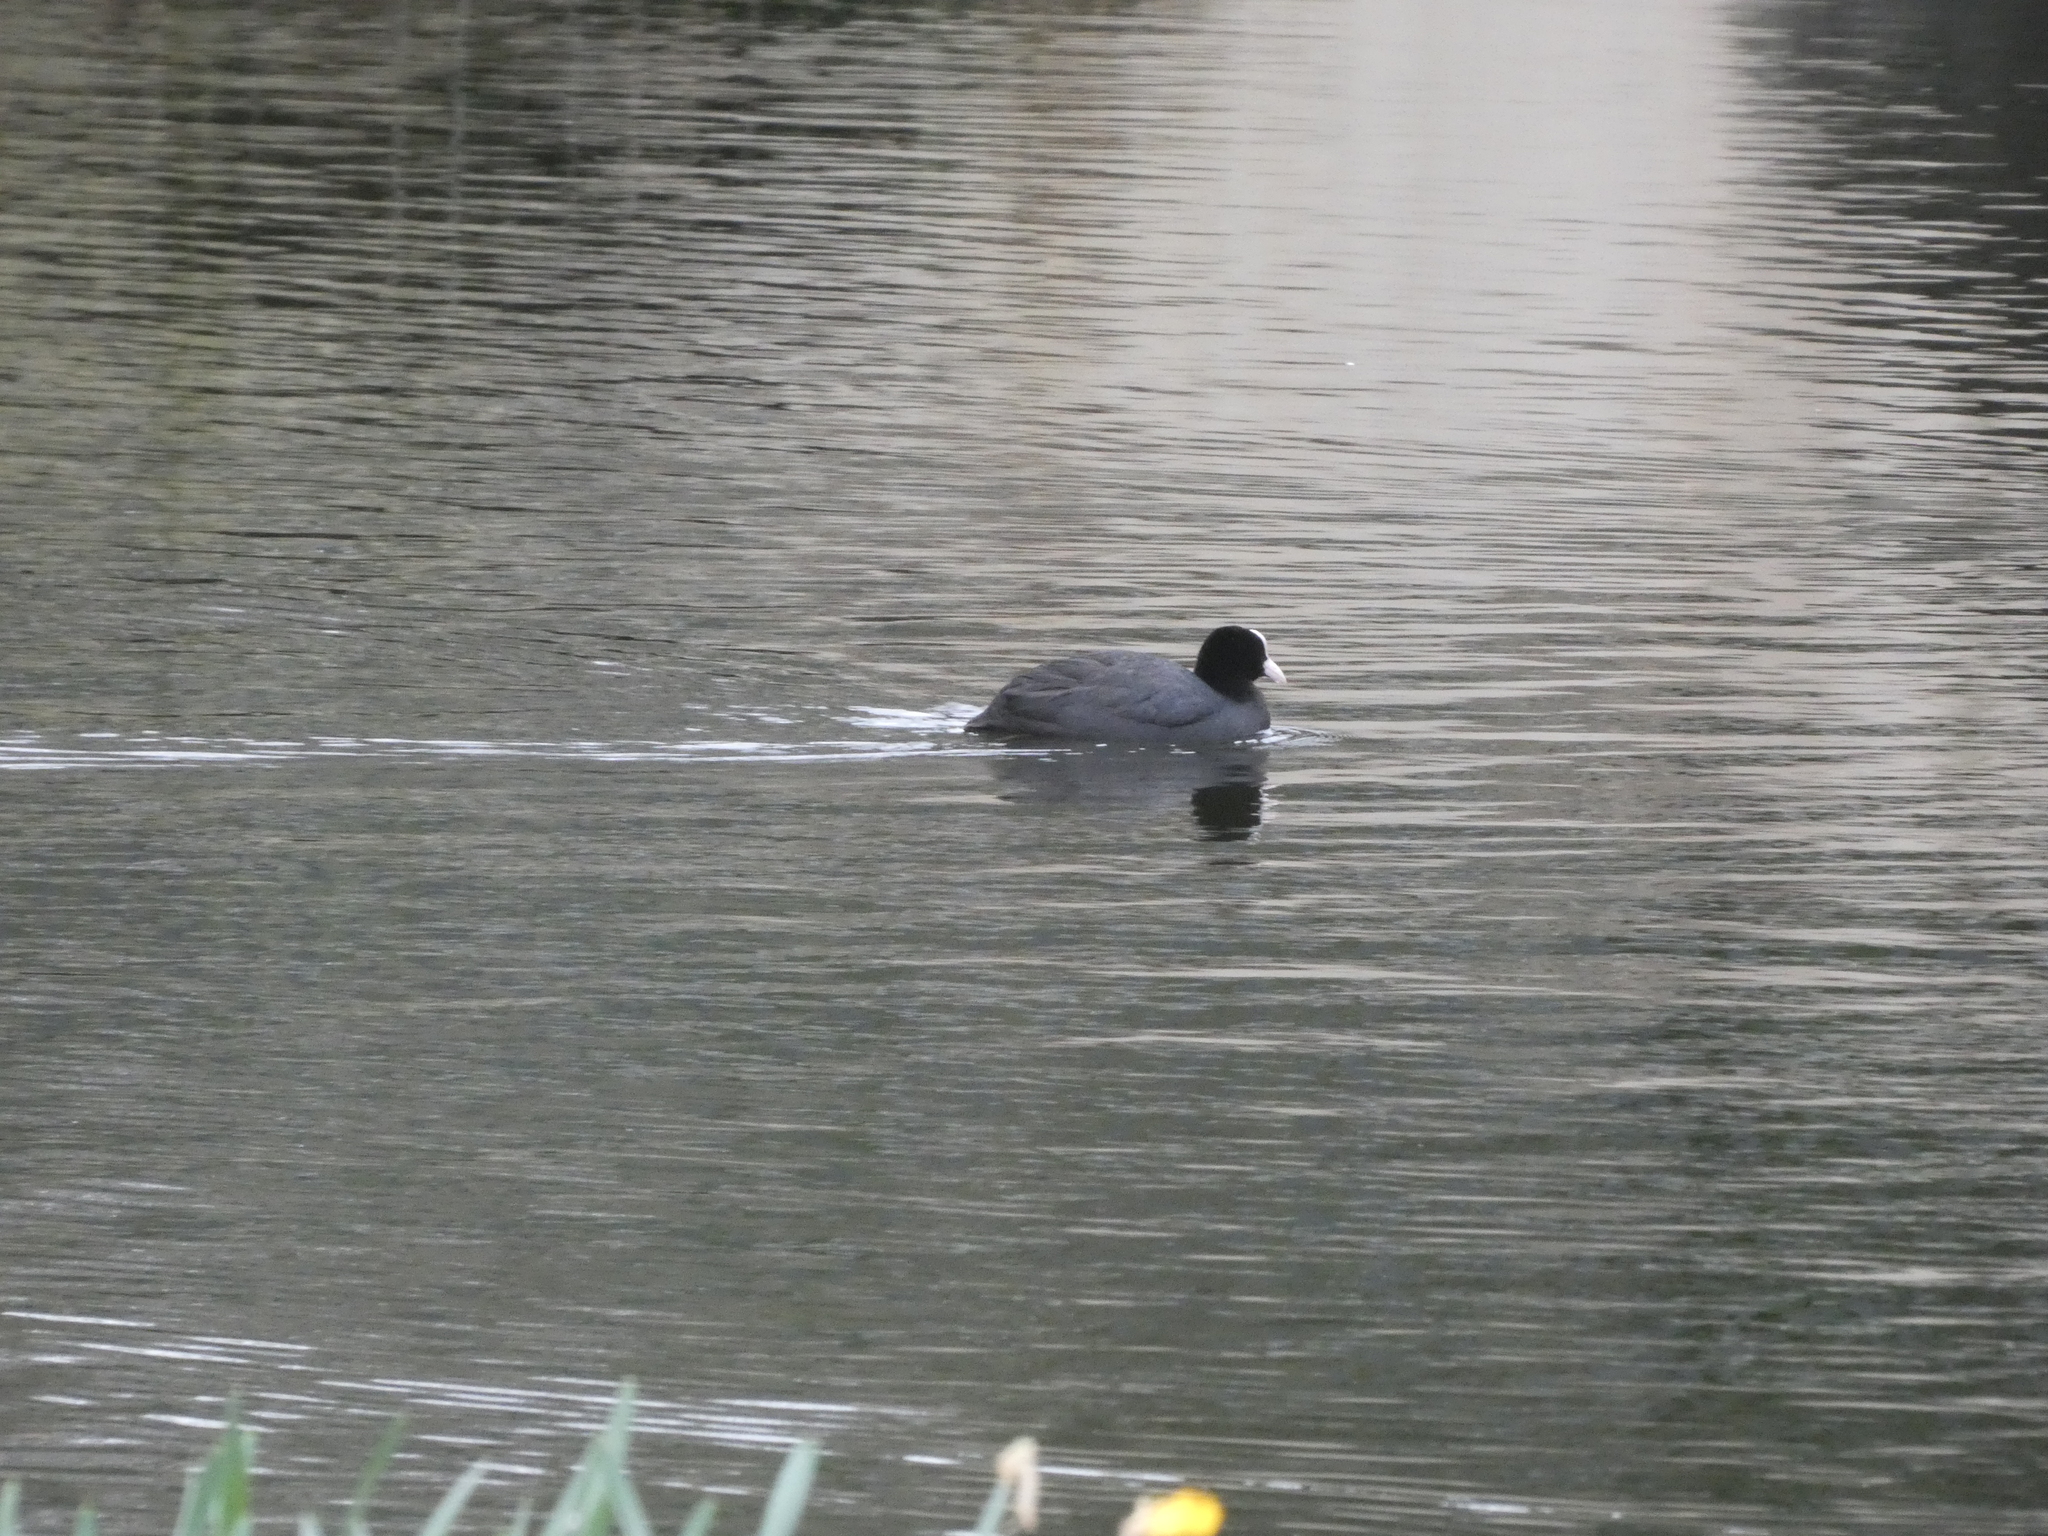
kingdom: Animalia
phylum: Chordata
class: Aves
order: Gruiformes
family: Rallidae
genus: Fulica
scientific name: Fulica atra
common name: Eurasian coot
